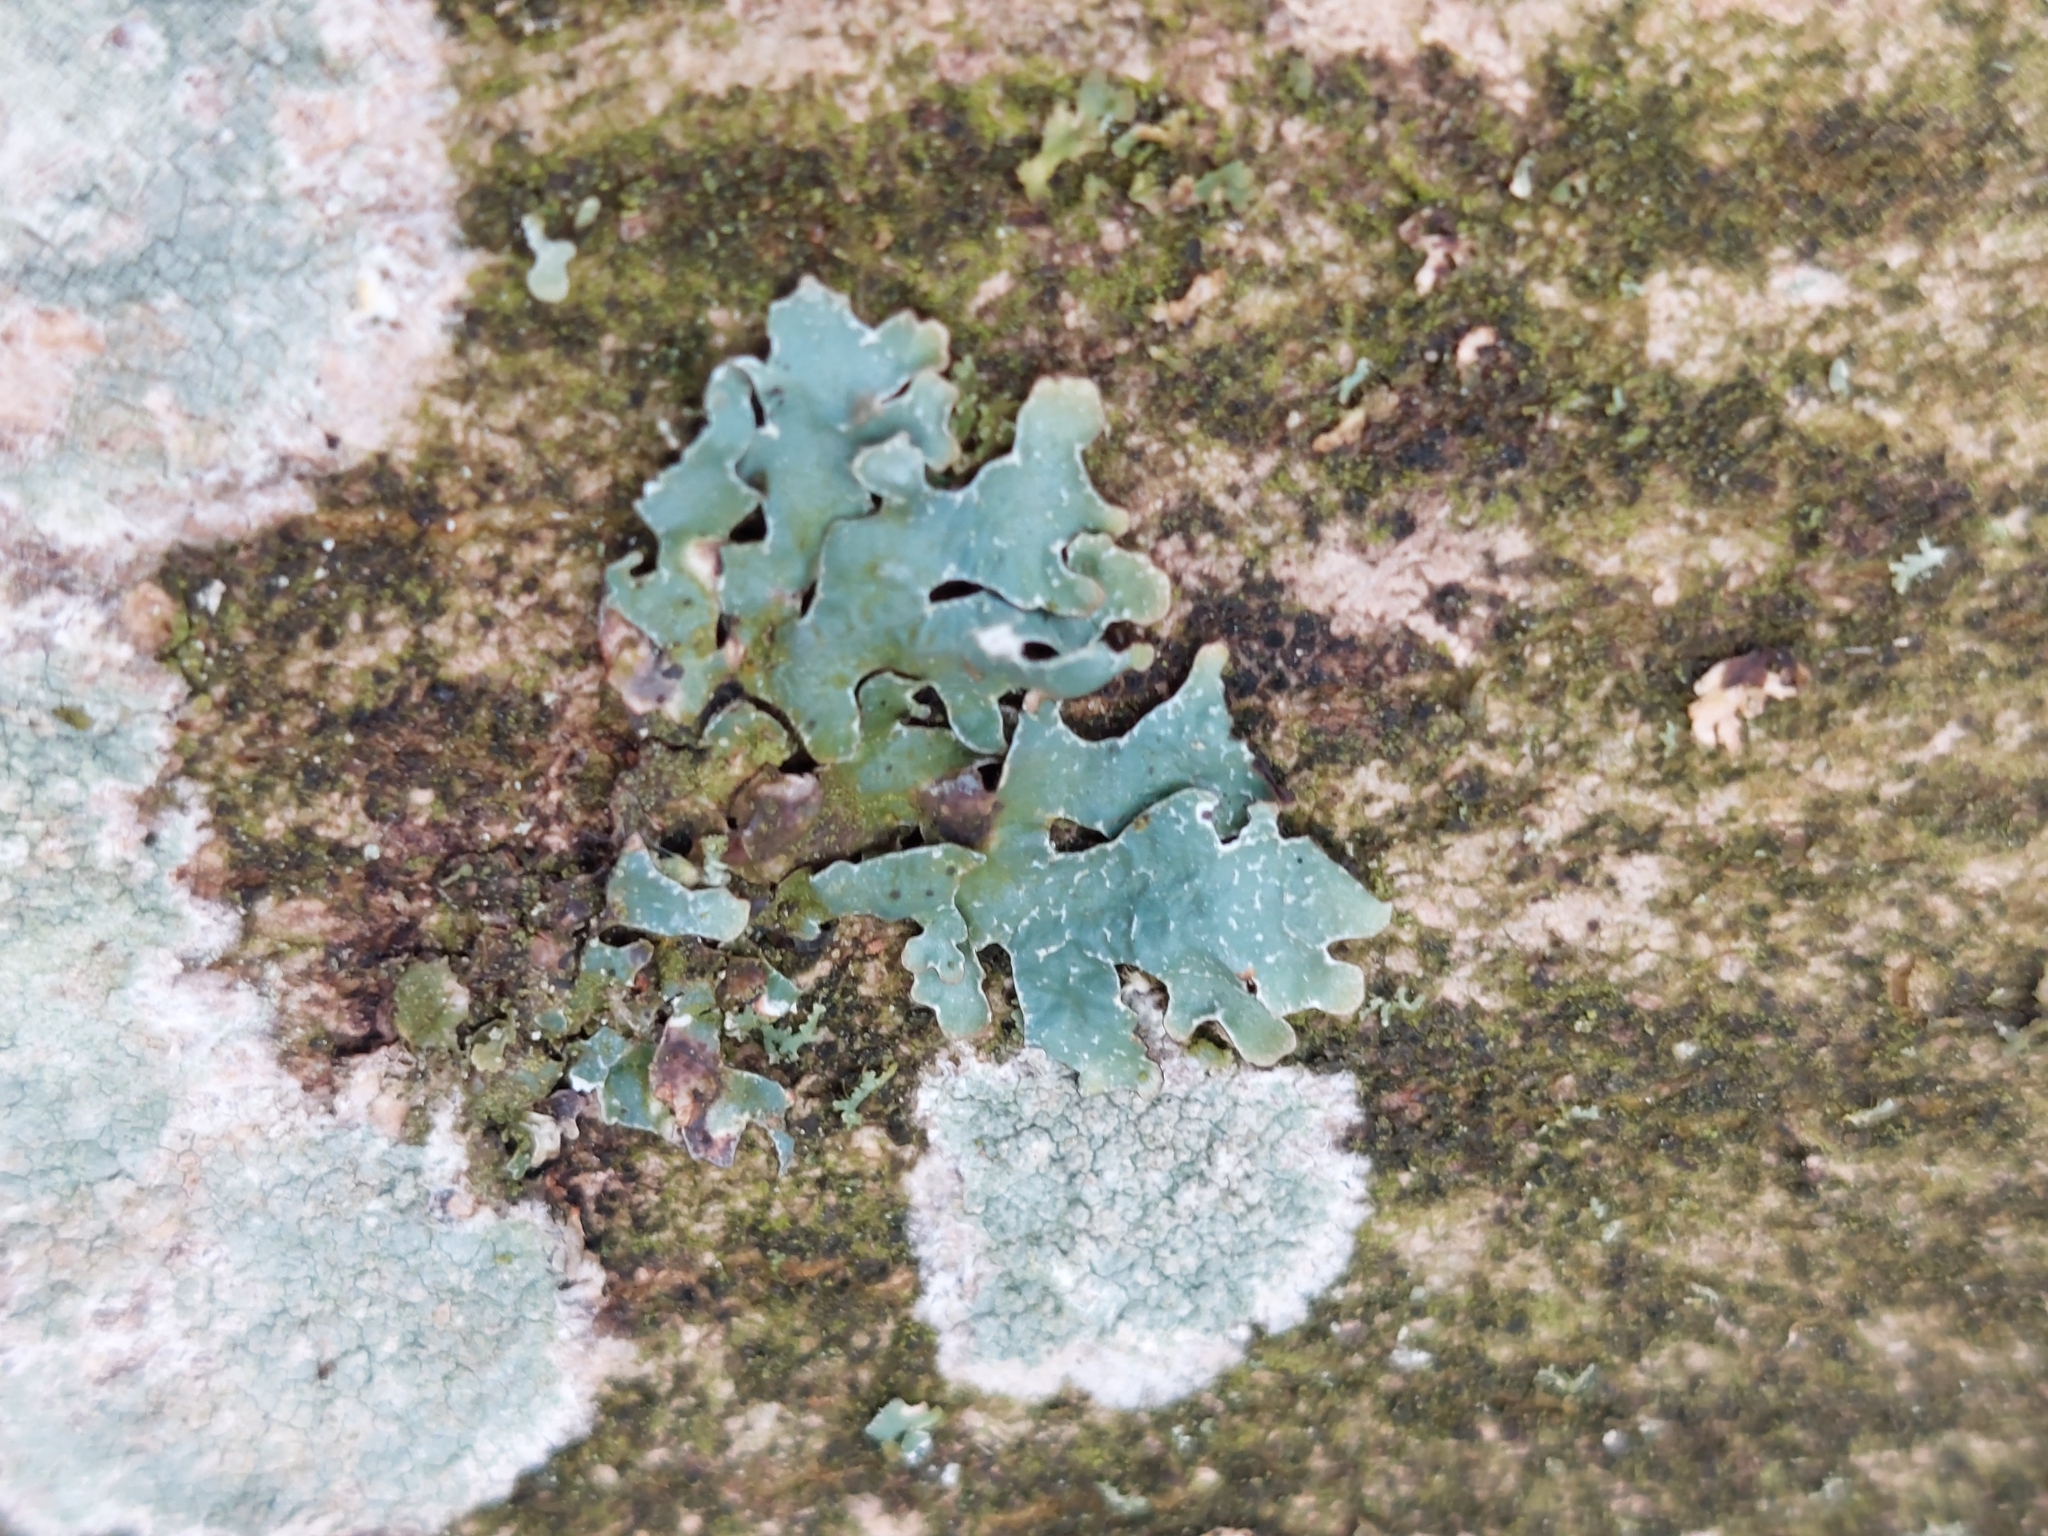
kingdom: Fungi
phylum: Ascomycota
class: Lecanoromycetes
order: Lecanorales
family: Parmeliaceae
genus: Parmelia
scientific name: Parmelia sulcata
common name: Netted shield lichen
